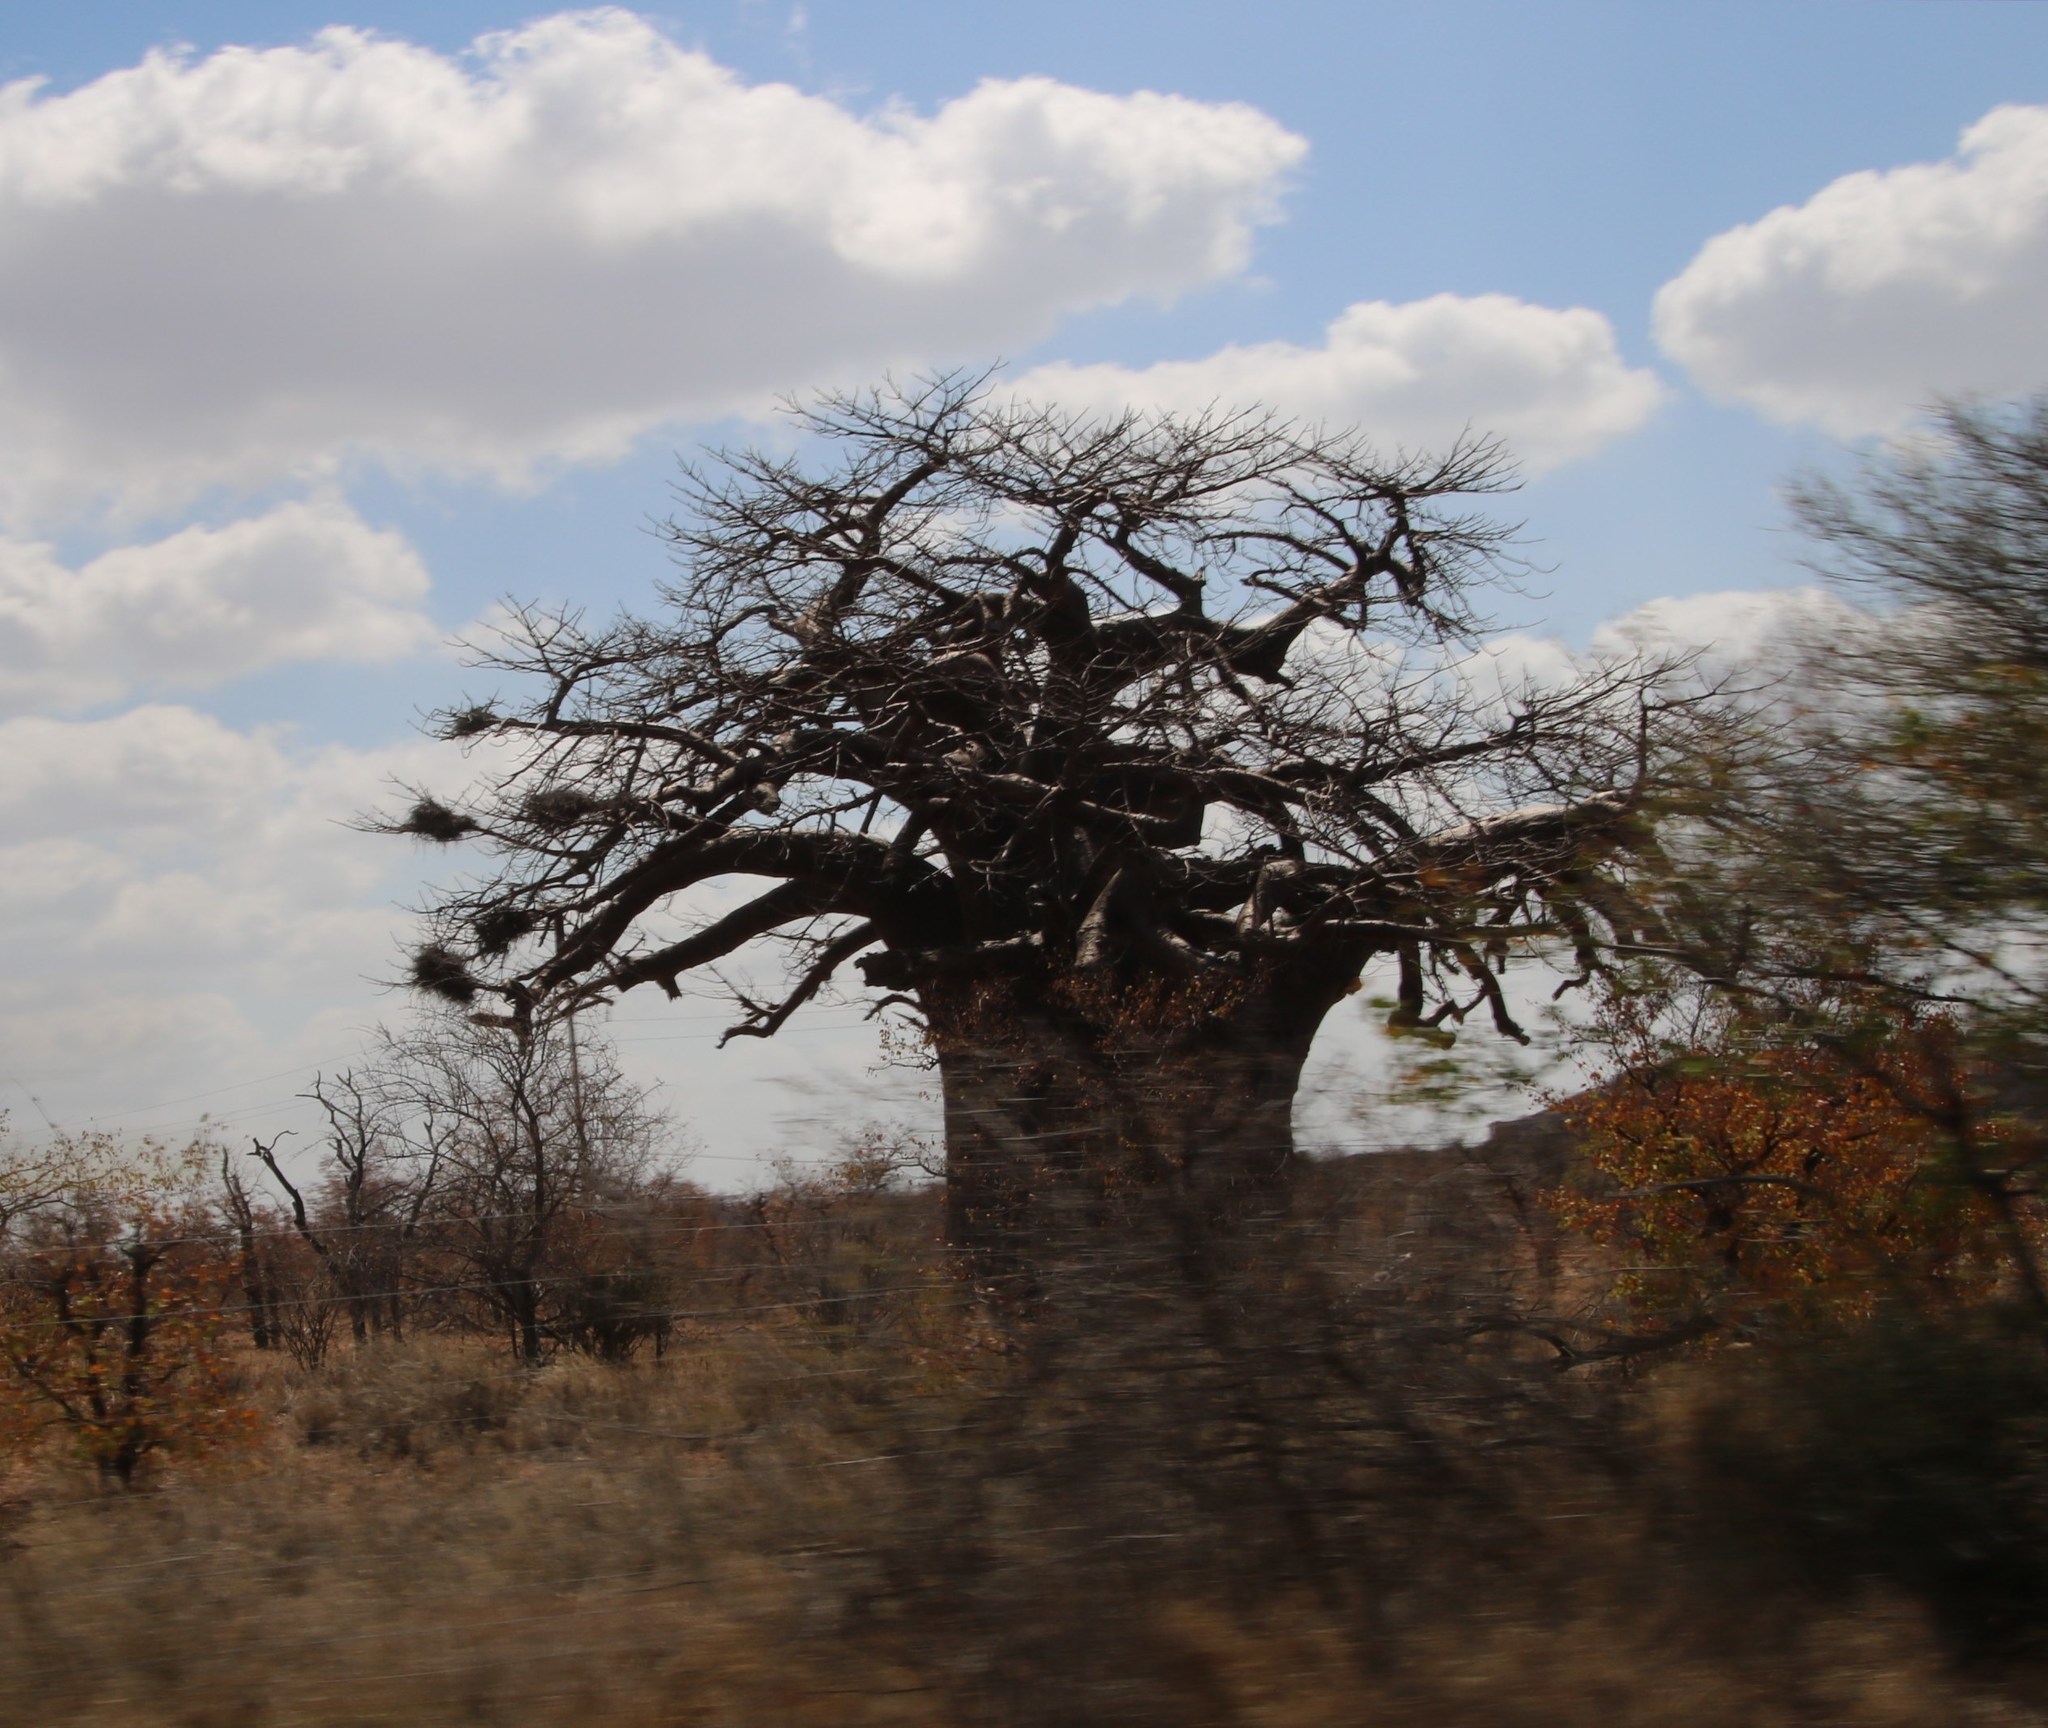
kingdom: Plantae
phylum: Tracheophyta
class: Magnoliopsida
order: Malvales
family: Malvaceae
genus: Adansonia
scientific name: Adansonia digitata
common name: Dead-rat-tree
